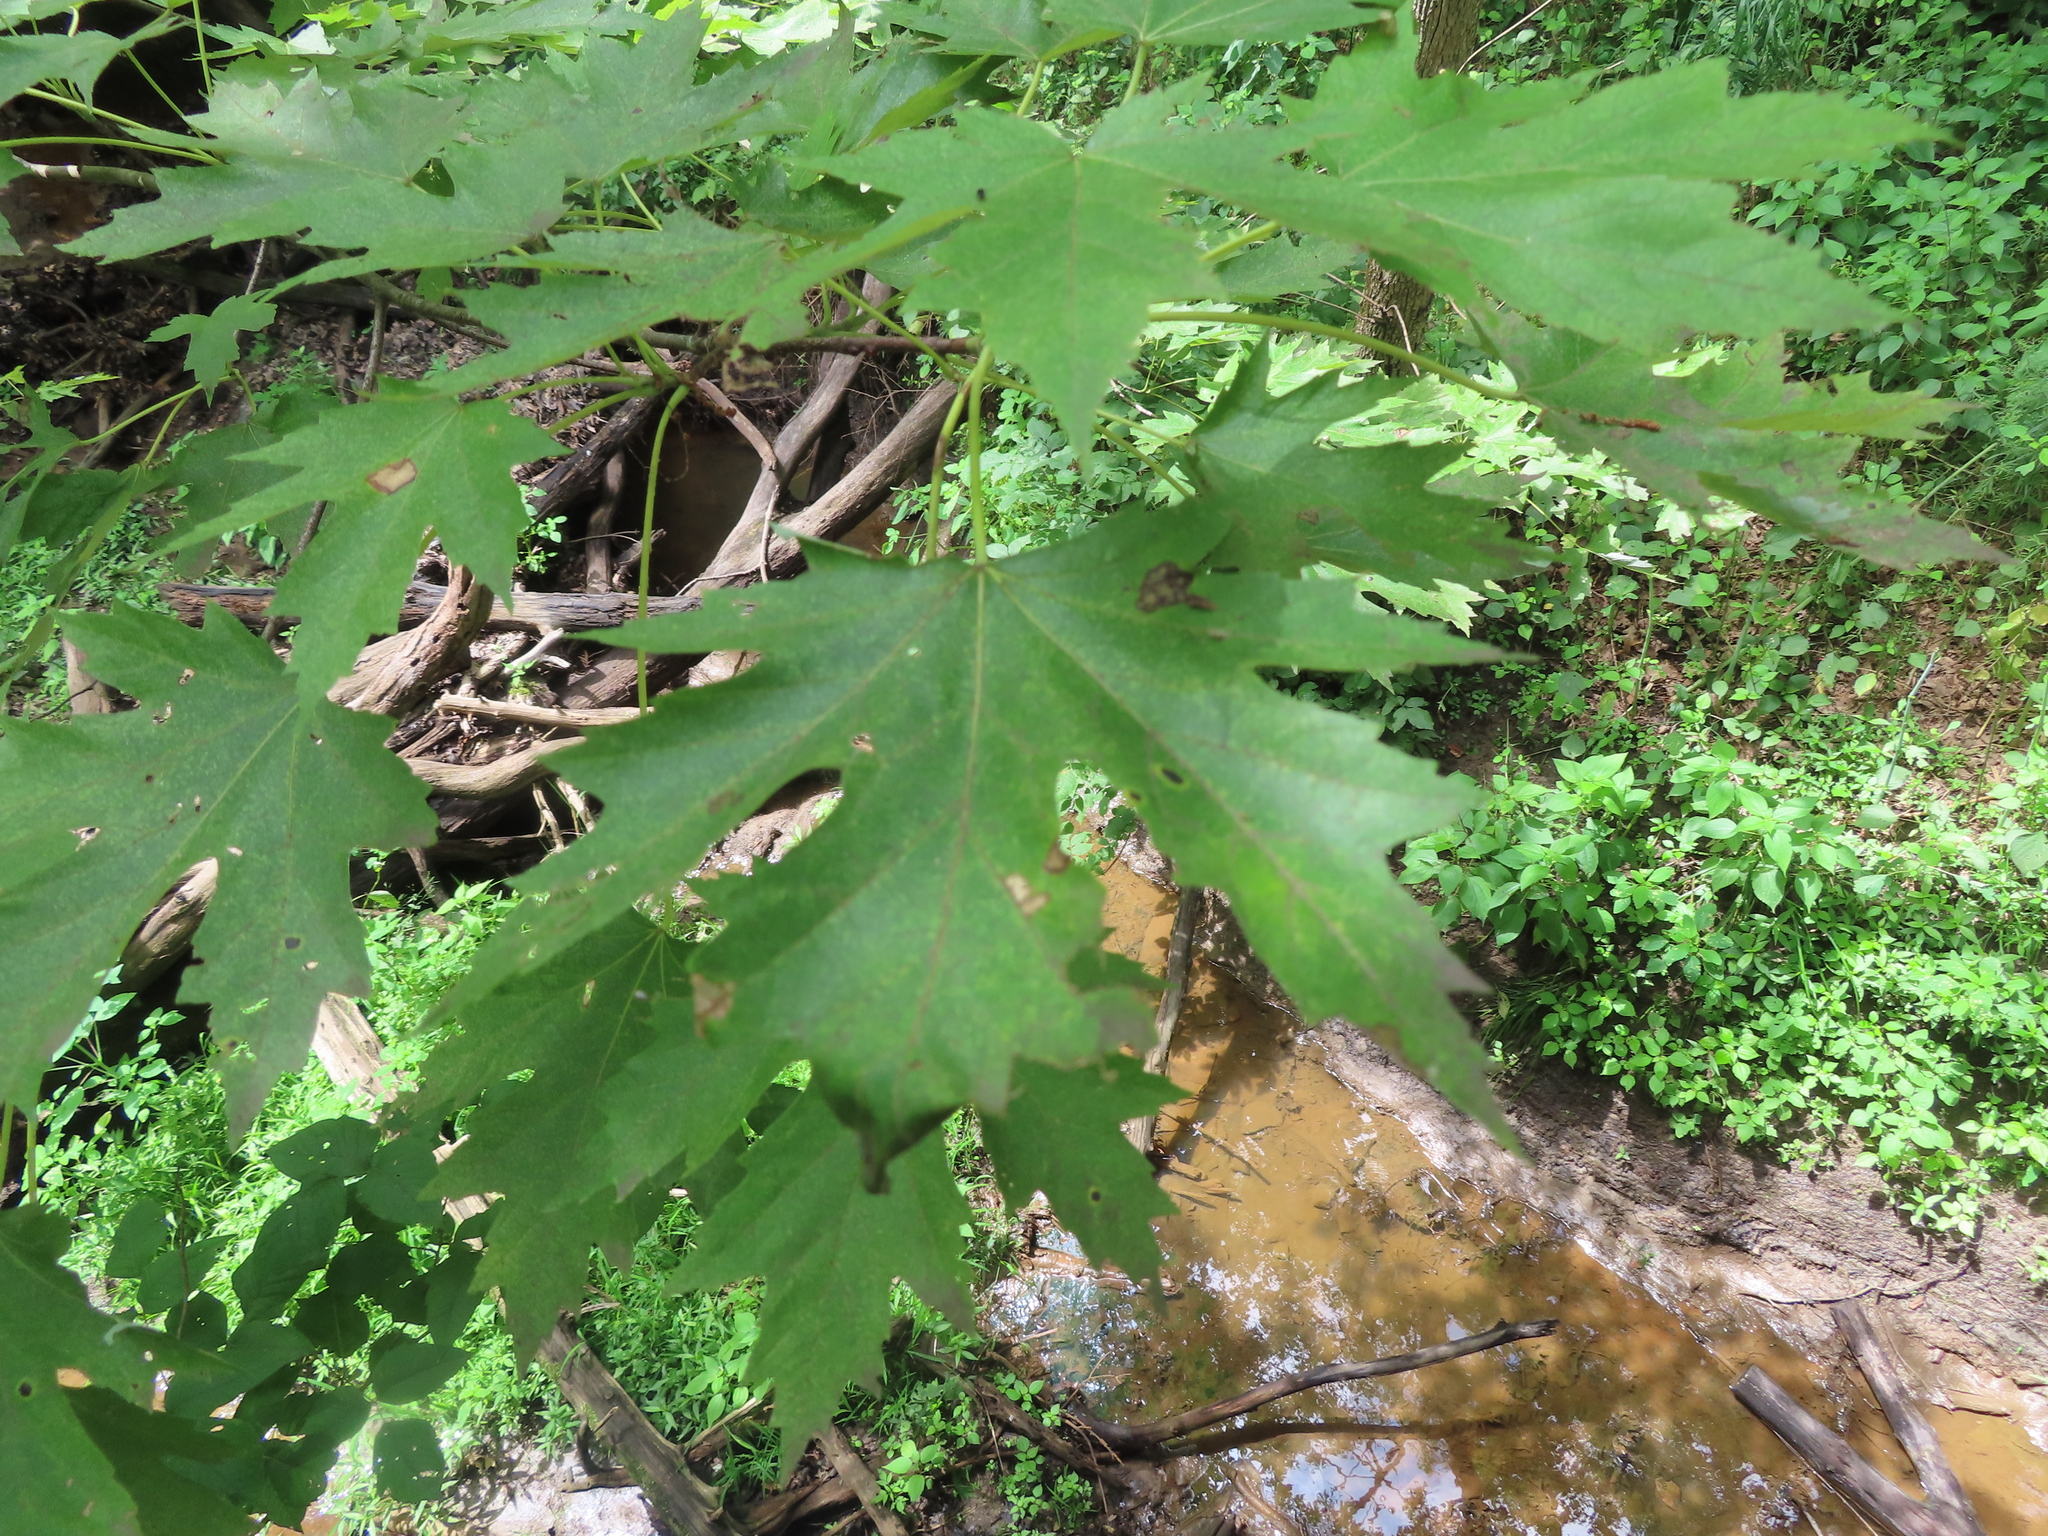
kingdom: Plantae
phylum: Tracheophyta
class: Magnoliopsida
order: Sapindales
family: Sapindaceae
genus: Acer
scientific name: Acer saccharinum
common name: Silver maple
